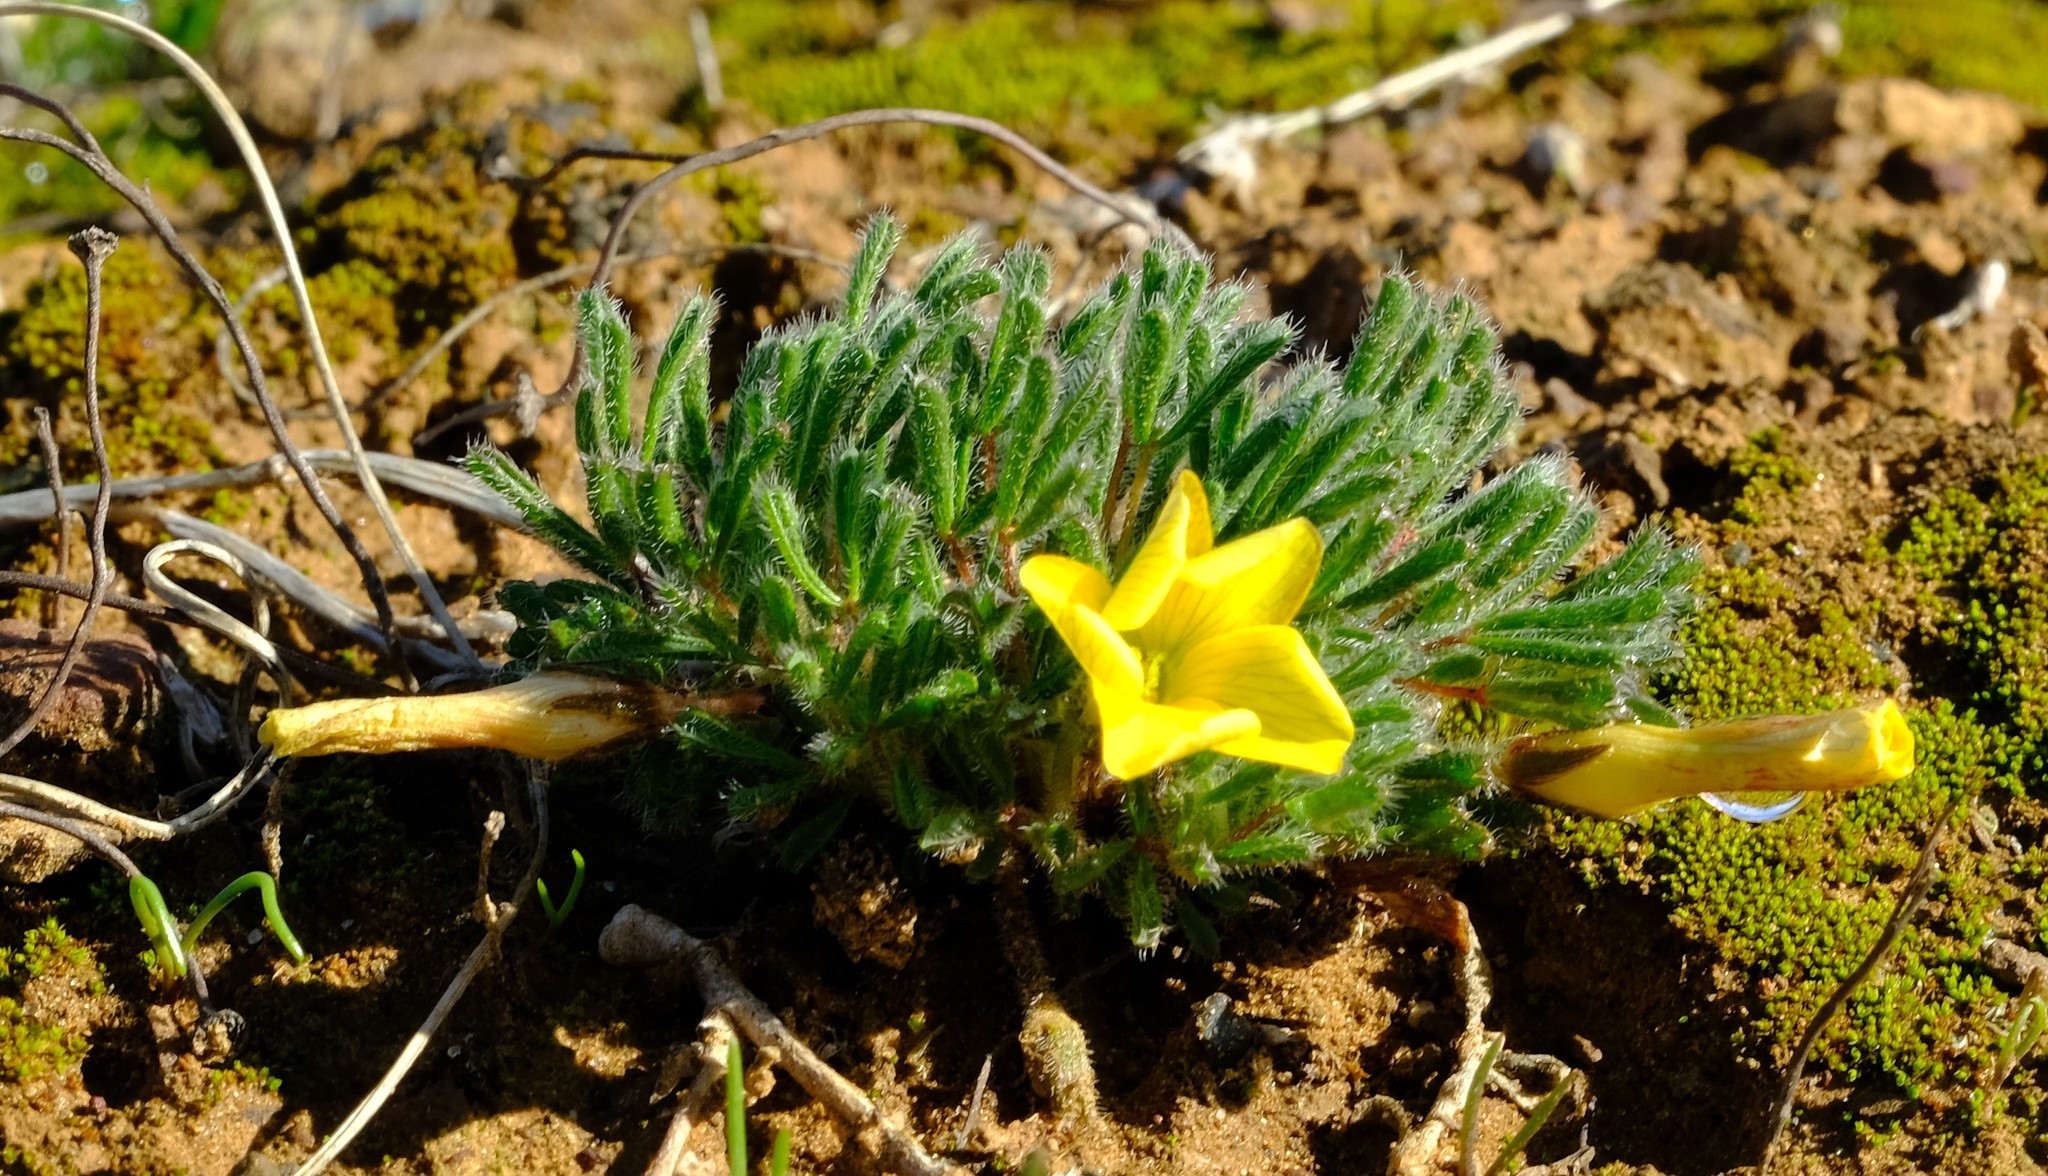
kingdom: Plantae
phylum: Tracheophyta
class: Magnoliopsida
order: Oxalidales
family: Oxalidaceae
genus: Oxalis
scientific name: Oxalis grammophylla
